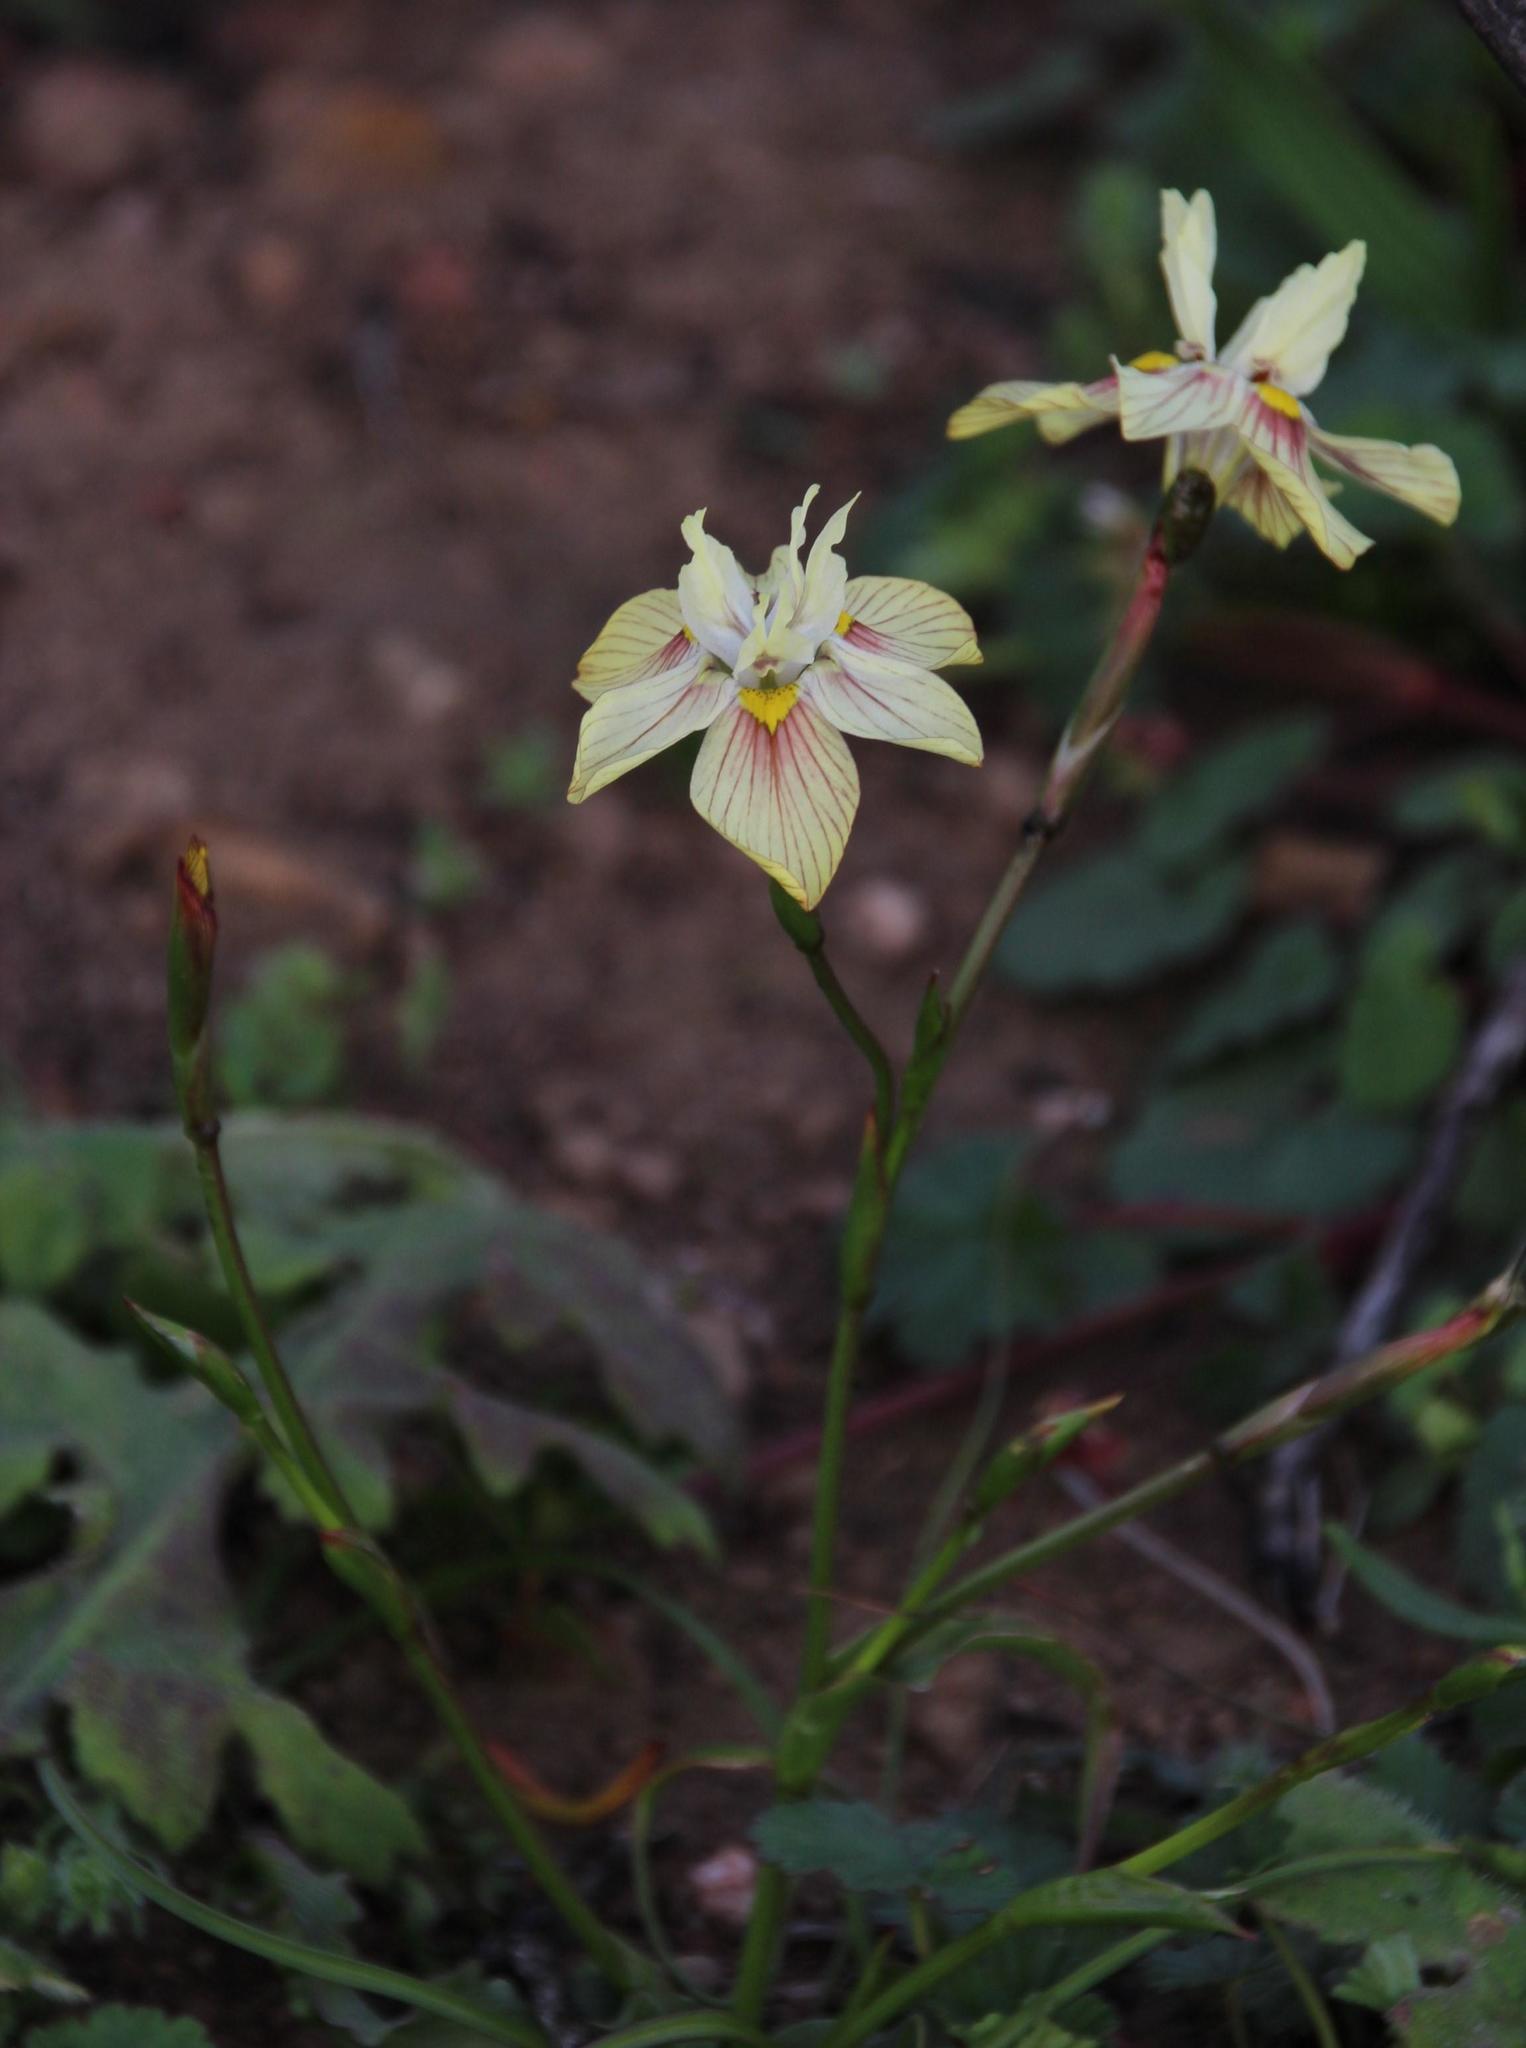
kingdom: Plantae
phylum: Tracheophyta
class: Liliopsida
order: Asparagales
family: Iridaceae
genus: Moraea
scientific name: Moraea gawleri
